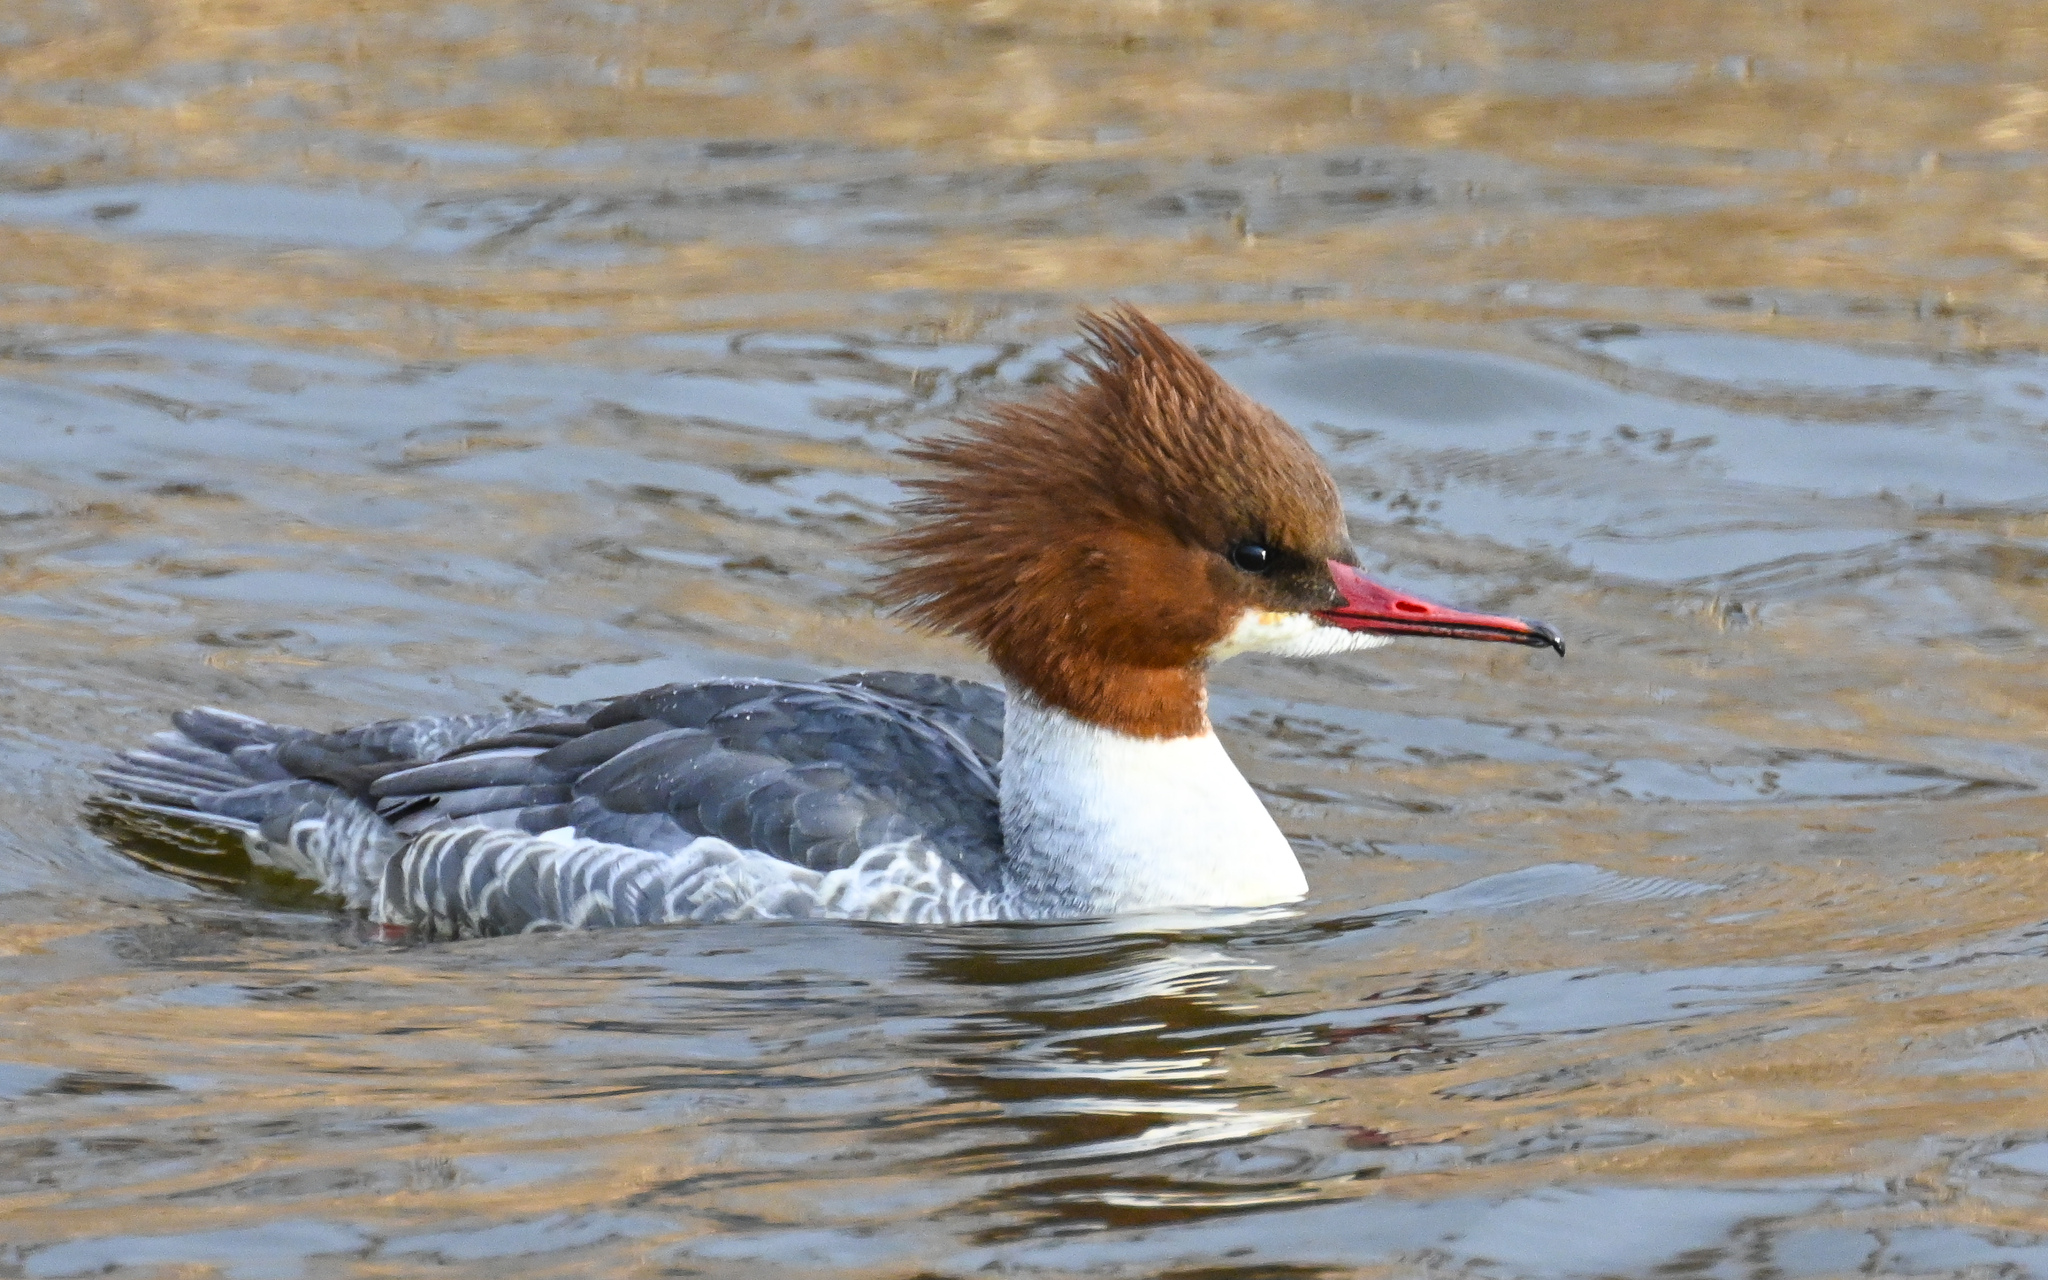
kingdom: Animalia
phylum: Chordata
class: Aves
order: Anseriformes
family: Anatidae
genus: Mergus
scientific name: Mergus merganser
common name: Common merganser
